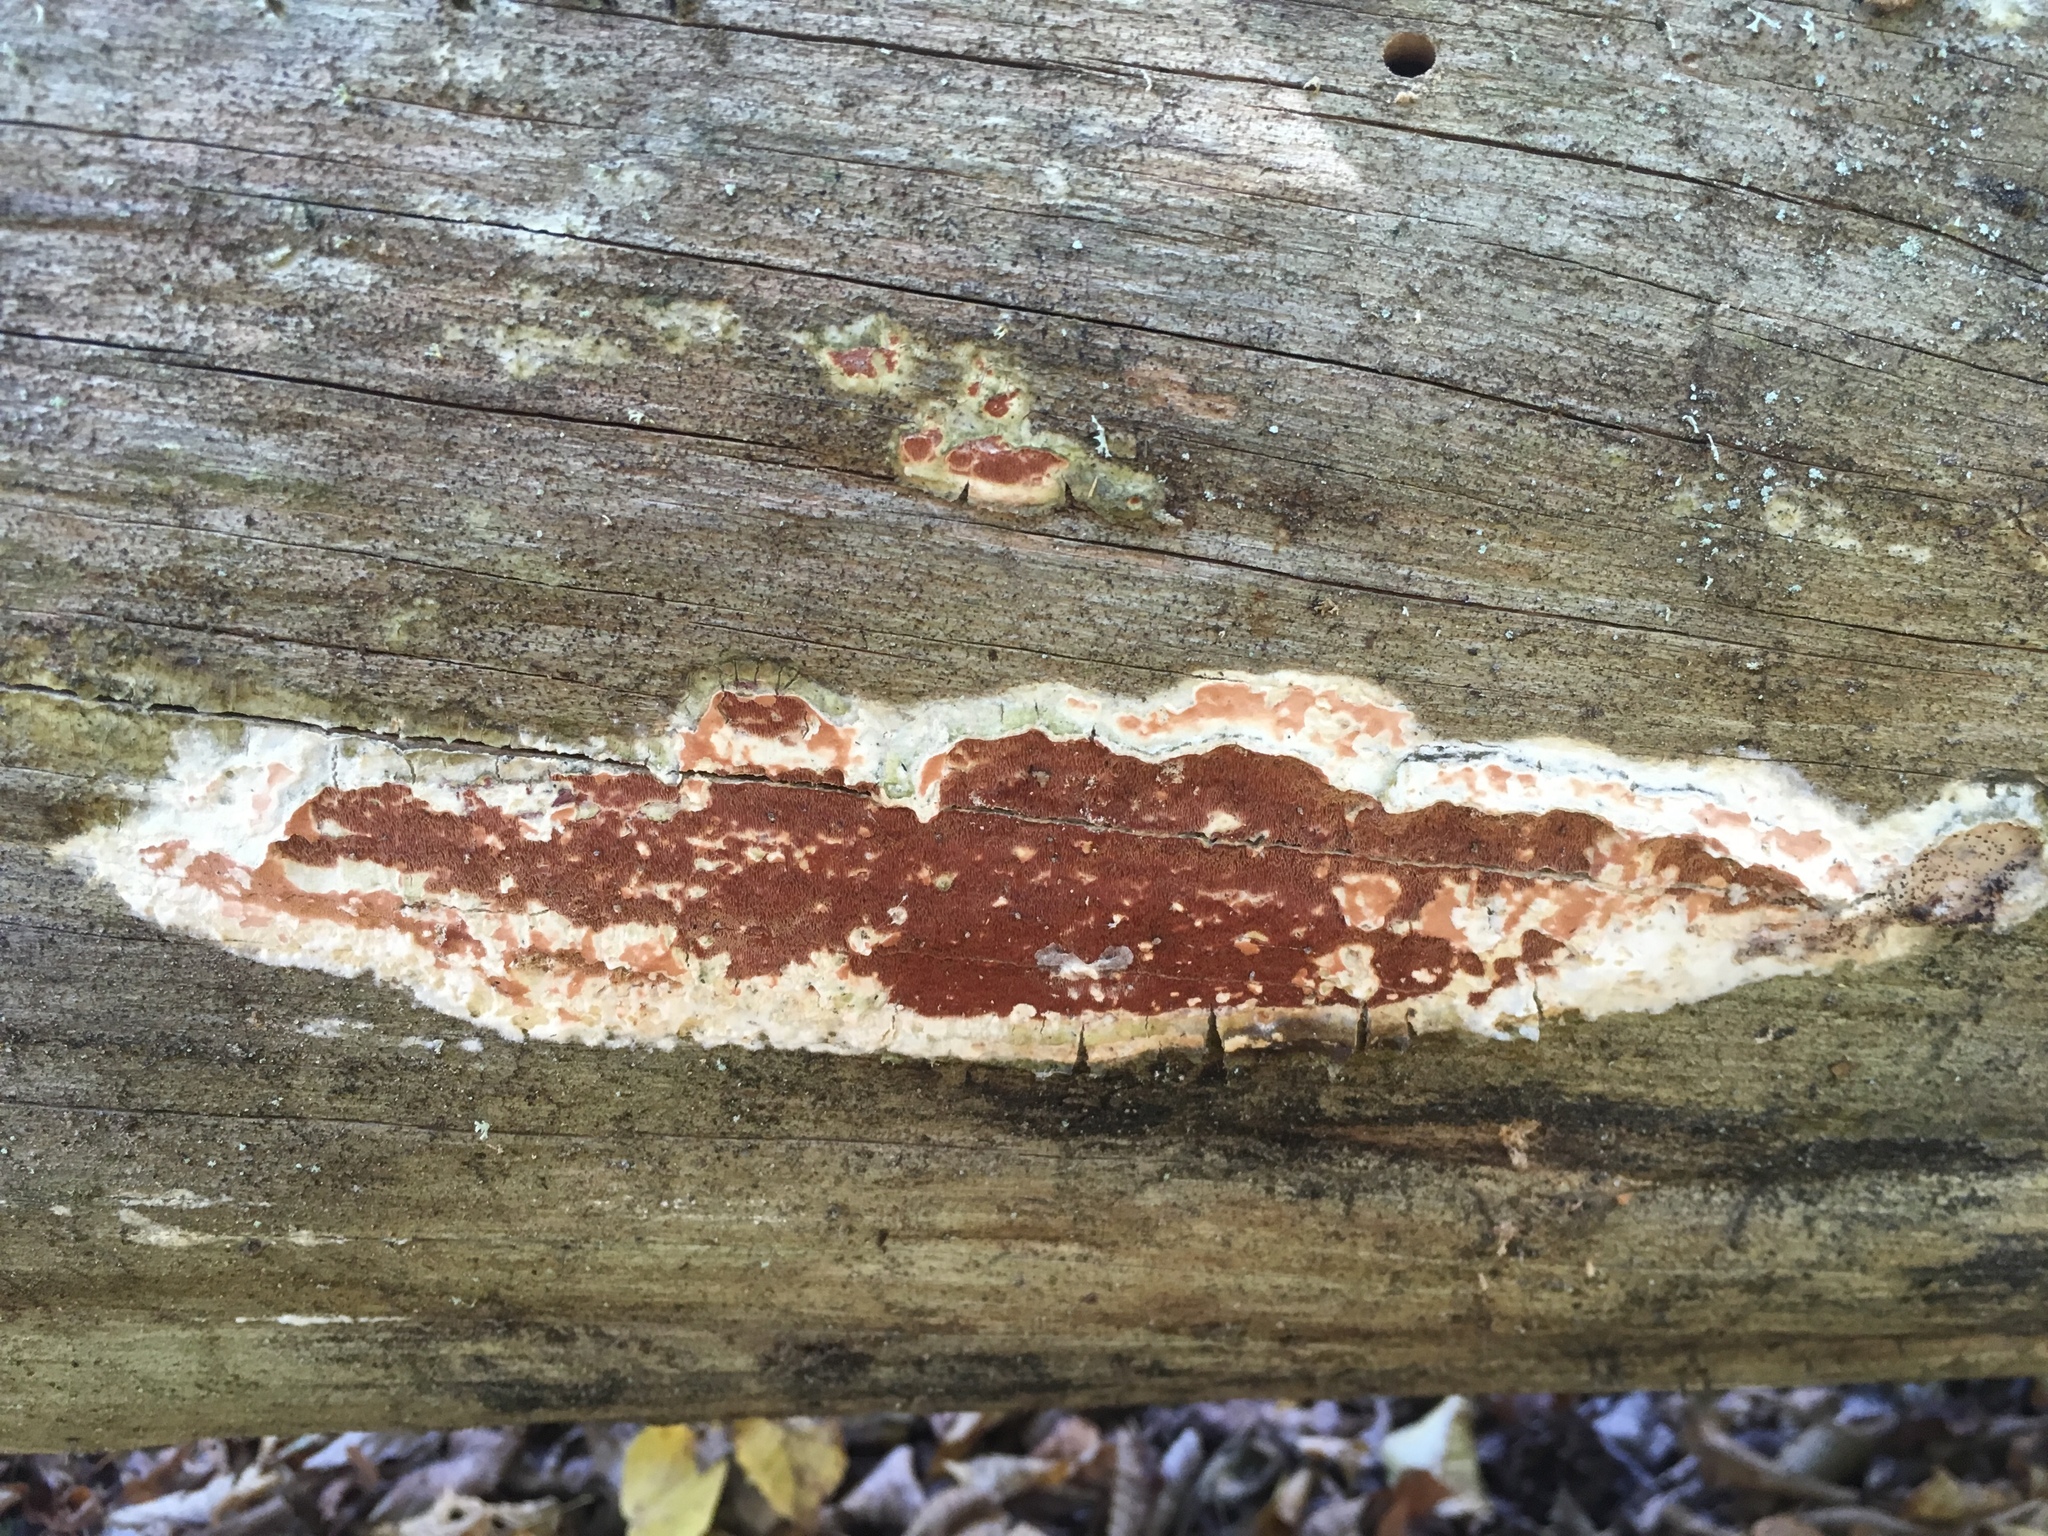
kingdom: Fungi
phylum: Basidiomycota
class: Agaricomycetes
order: Polyporales
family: Irpicaceae
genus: Meruliopsis
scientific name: Meruliopsis taxicola
